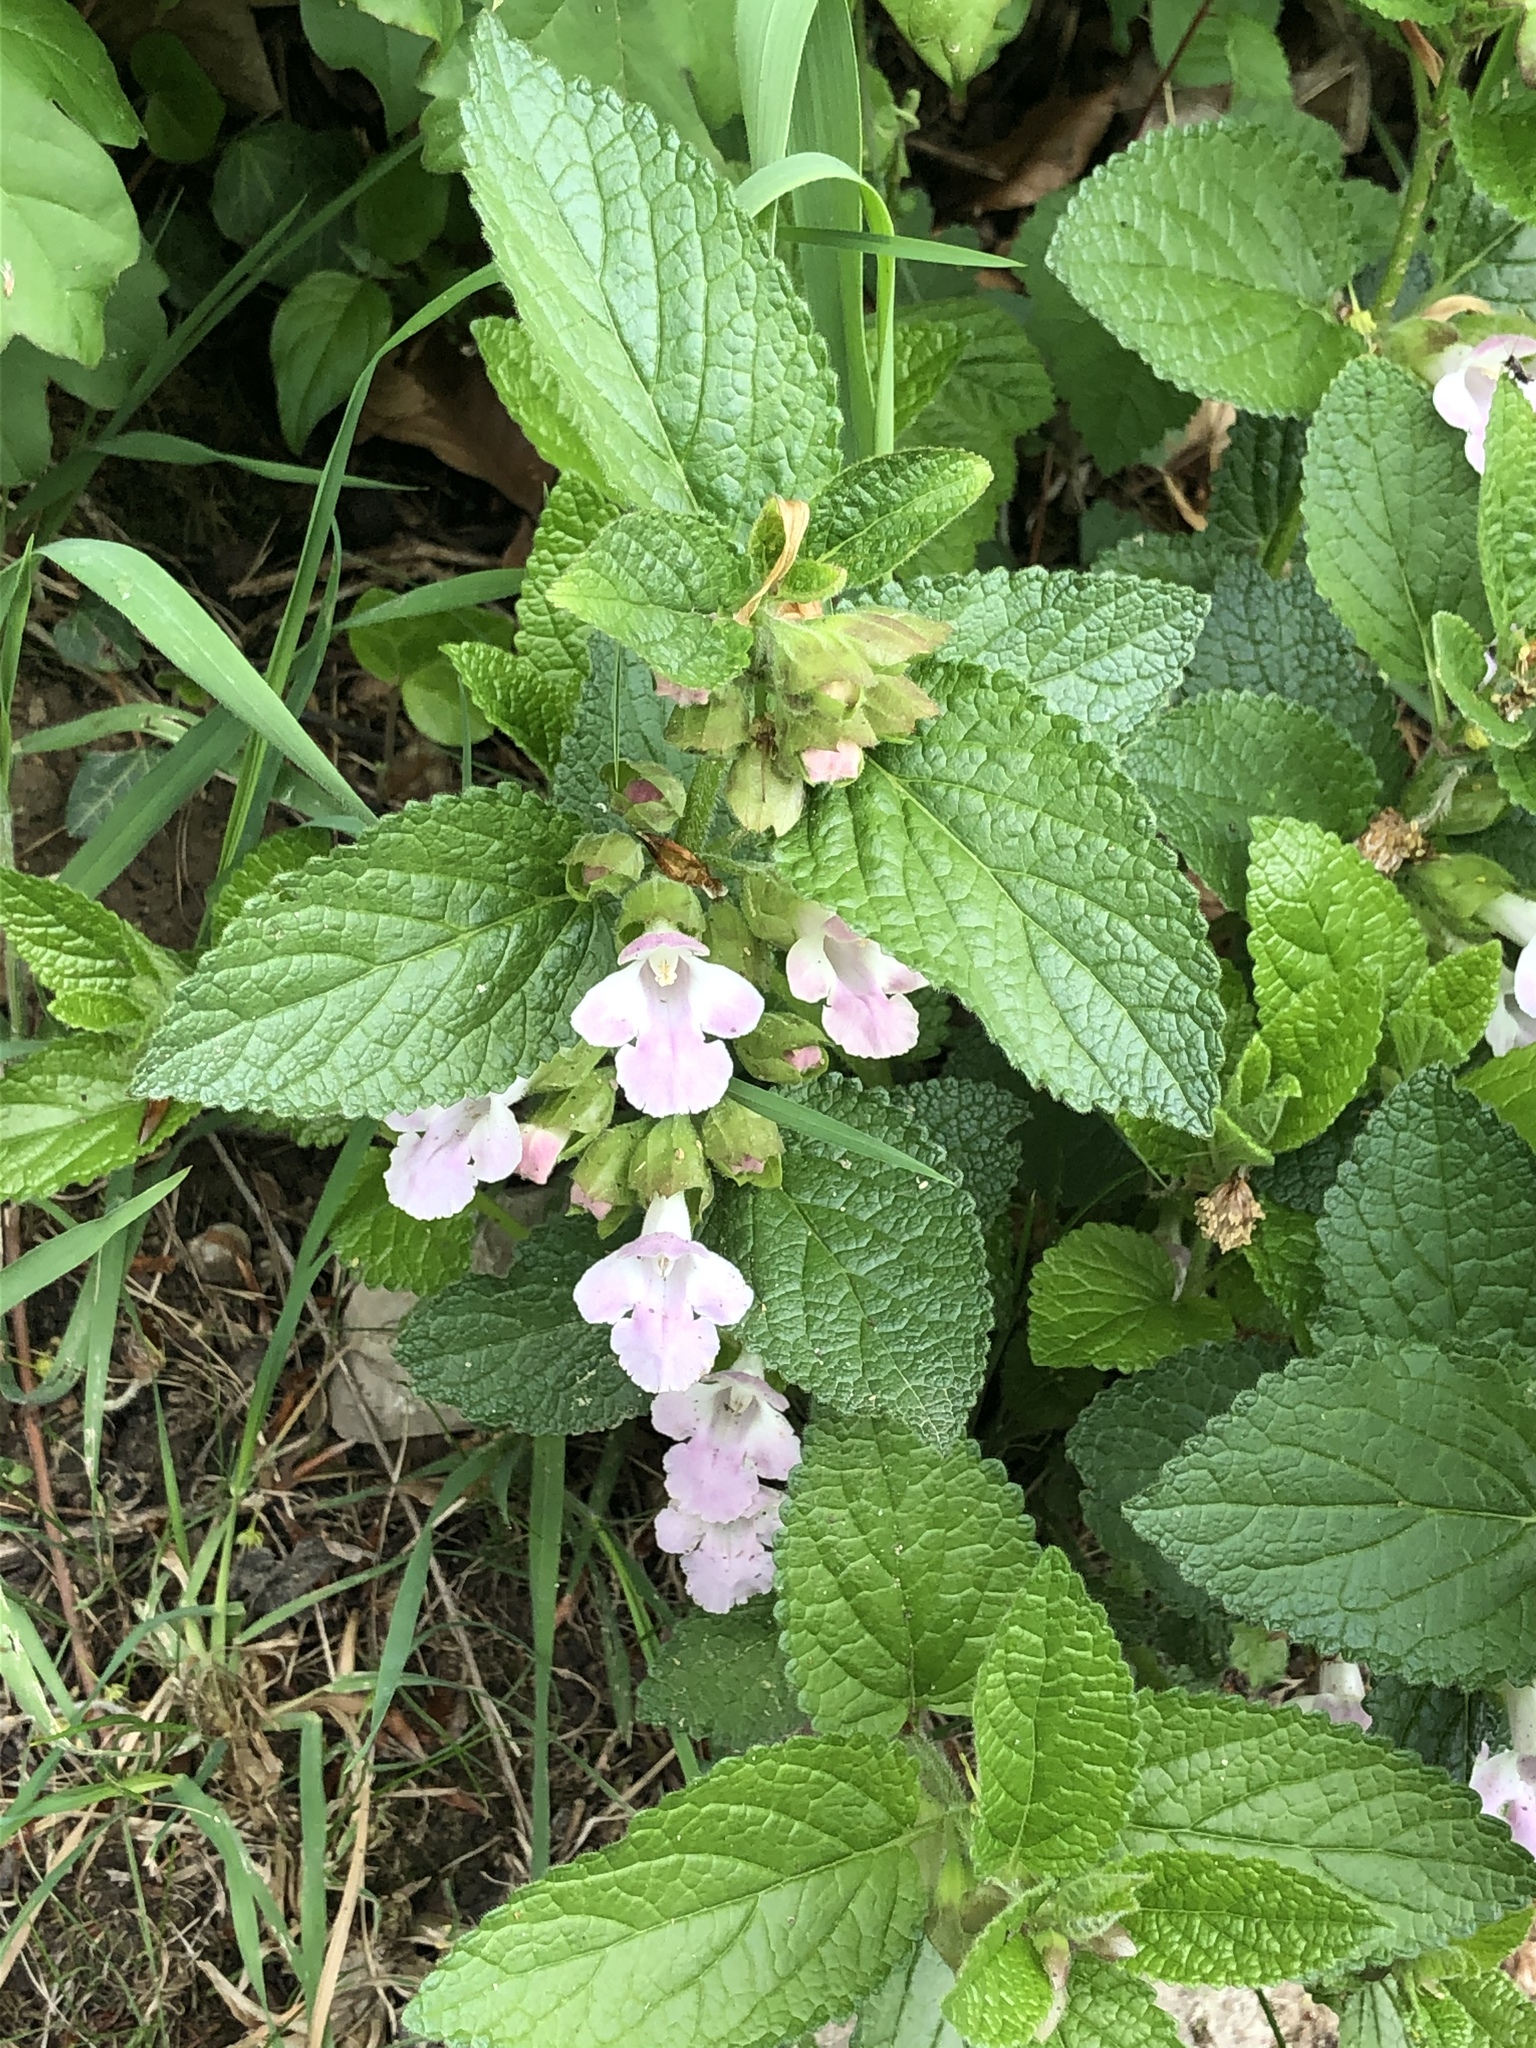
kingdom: Plantae
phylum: Tracheophyta
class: Magnoliopsida
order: Lamiales
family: Lamiaceae
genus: Melittis
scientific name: Melittis melissophyllum
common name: Bastard balm
